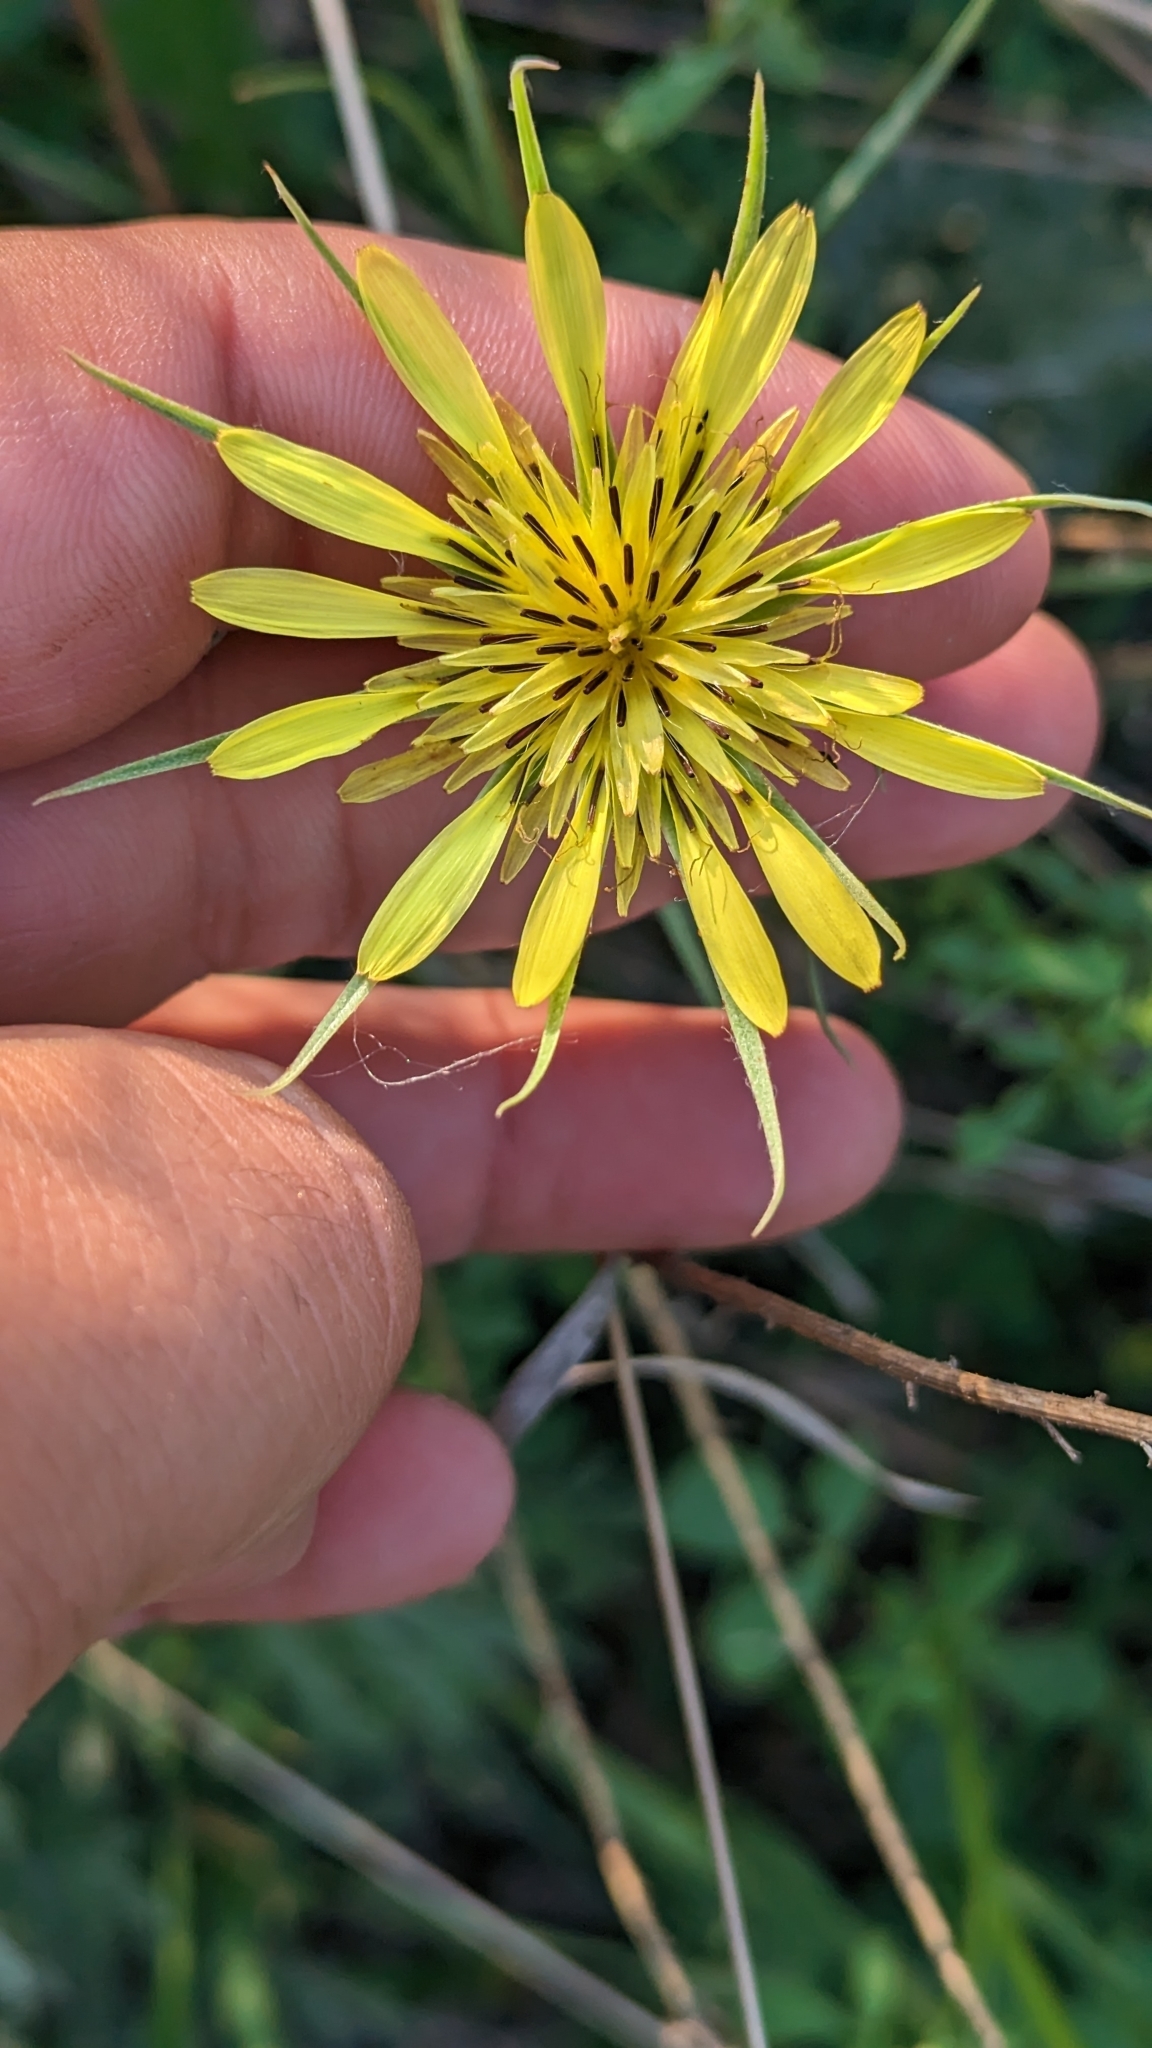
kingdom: Plantae
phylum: Tracheophyta
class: Magnoliopsida
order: Asterales
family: Asteraceae
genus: Tragopogon
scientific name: Tragopogon dubius
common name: Yellow salsify
